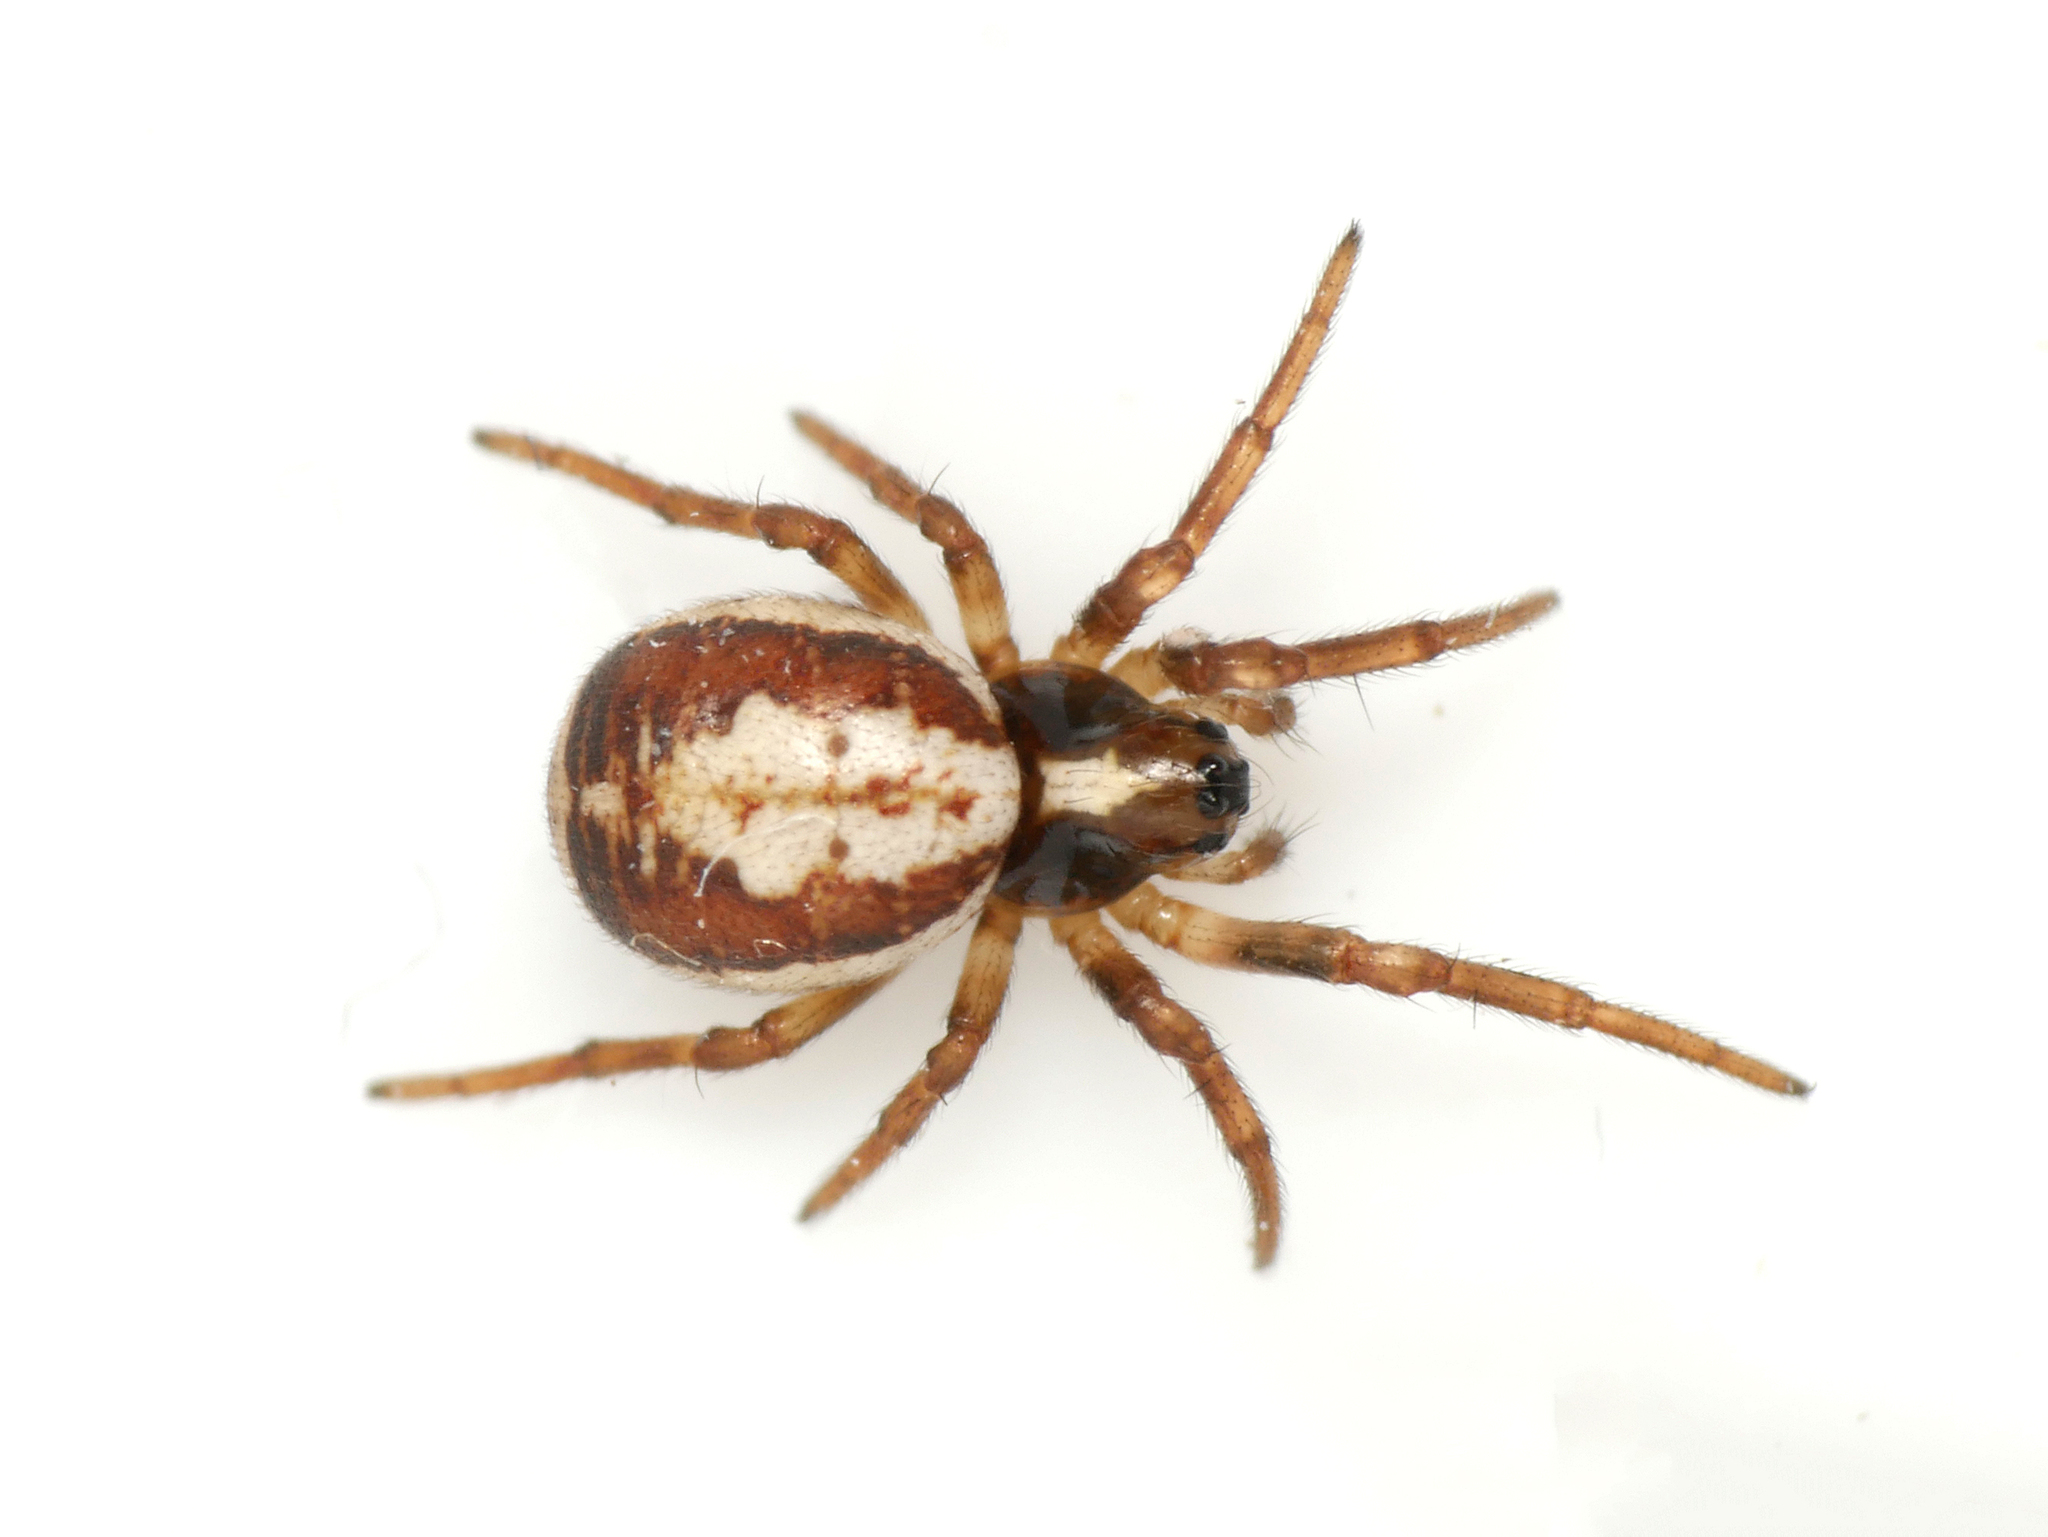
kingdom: Animalia
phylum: Arthropoda
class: Arachnida
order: Araneae
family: Araneidae
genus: Hypsosinga
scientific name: Hypsosinga albovittata
